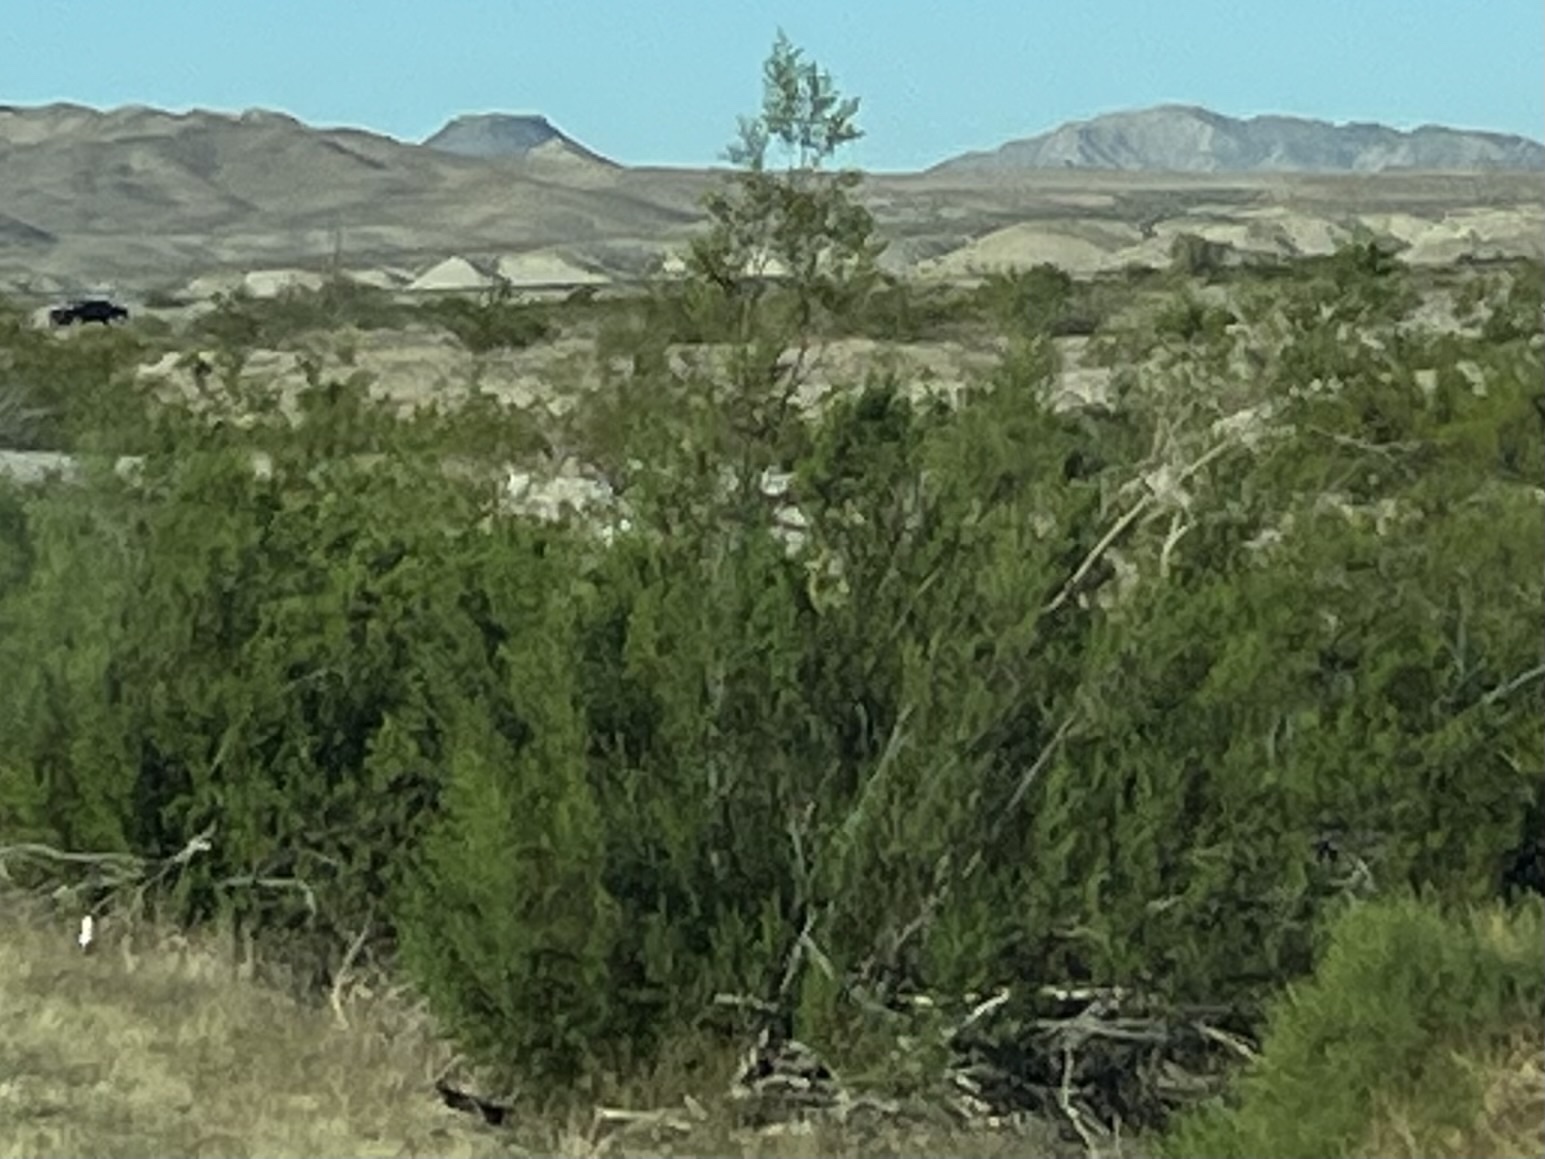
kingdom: Plantae
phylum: Tracheophyta
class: Magnoliopsida
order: Zygophyllales
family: Zygophyllaceae
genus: Larrea
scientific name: Larrea tridentata
